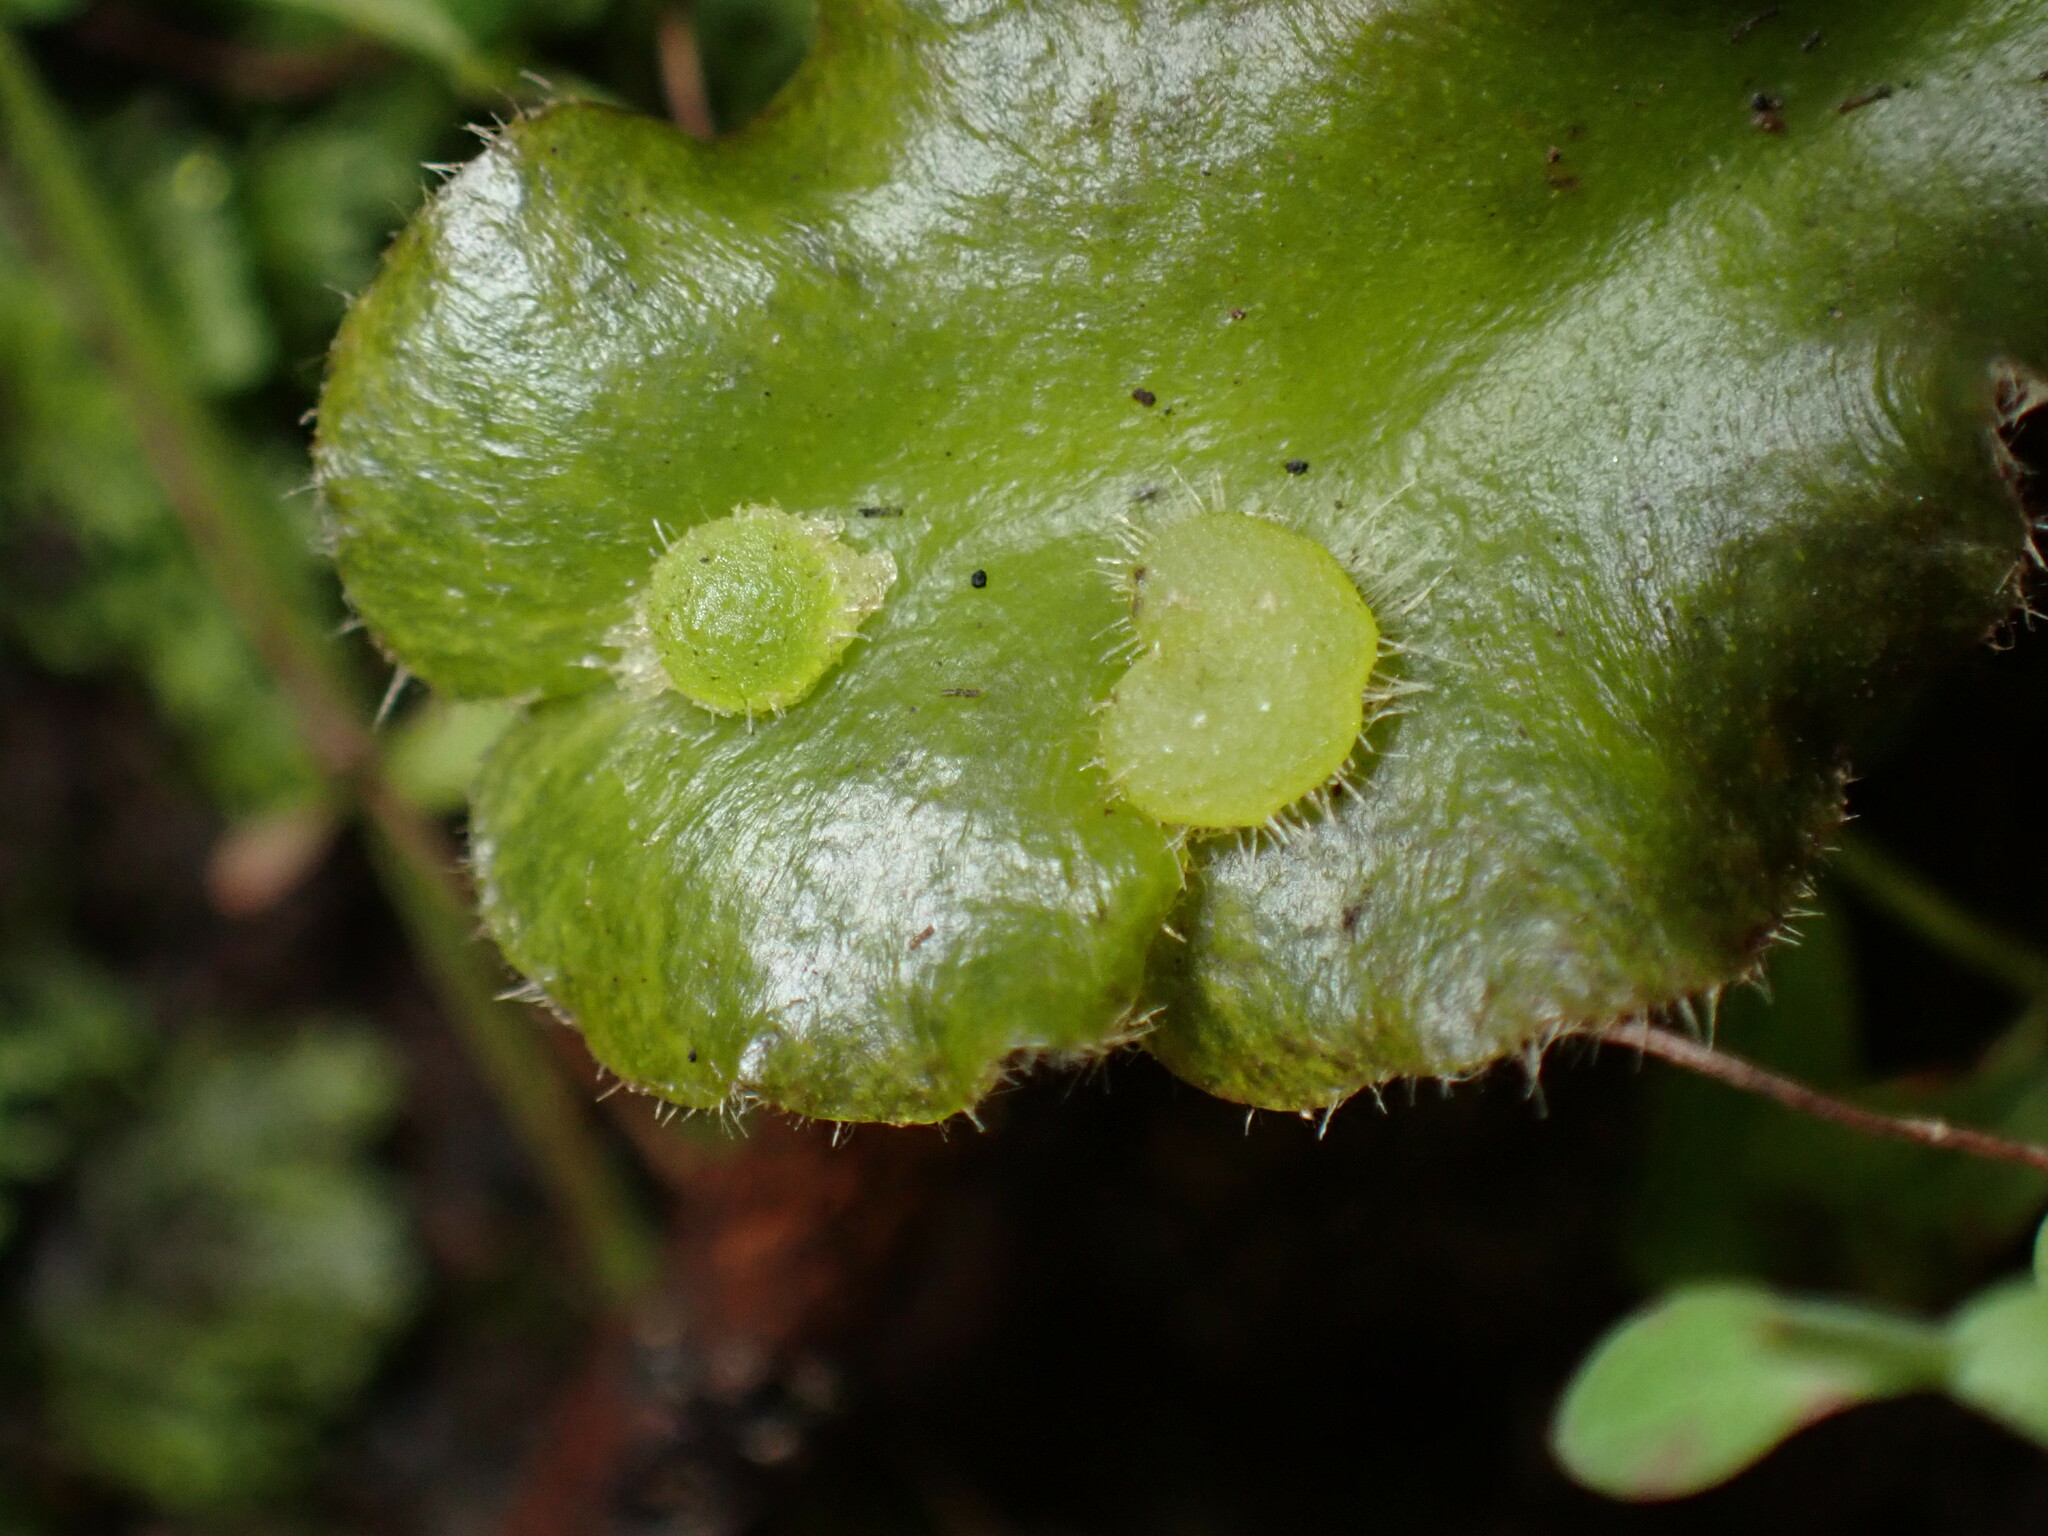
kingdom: Plantae
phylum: Marchantiophyta
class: Marchantiopsida
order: Marchantiales
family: Dumortieraceae
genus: Dumortiera
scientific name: Dumortiera hirsuta
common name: Dumortier's liverwort
